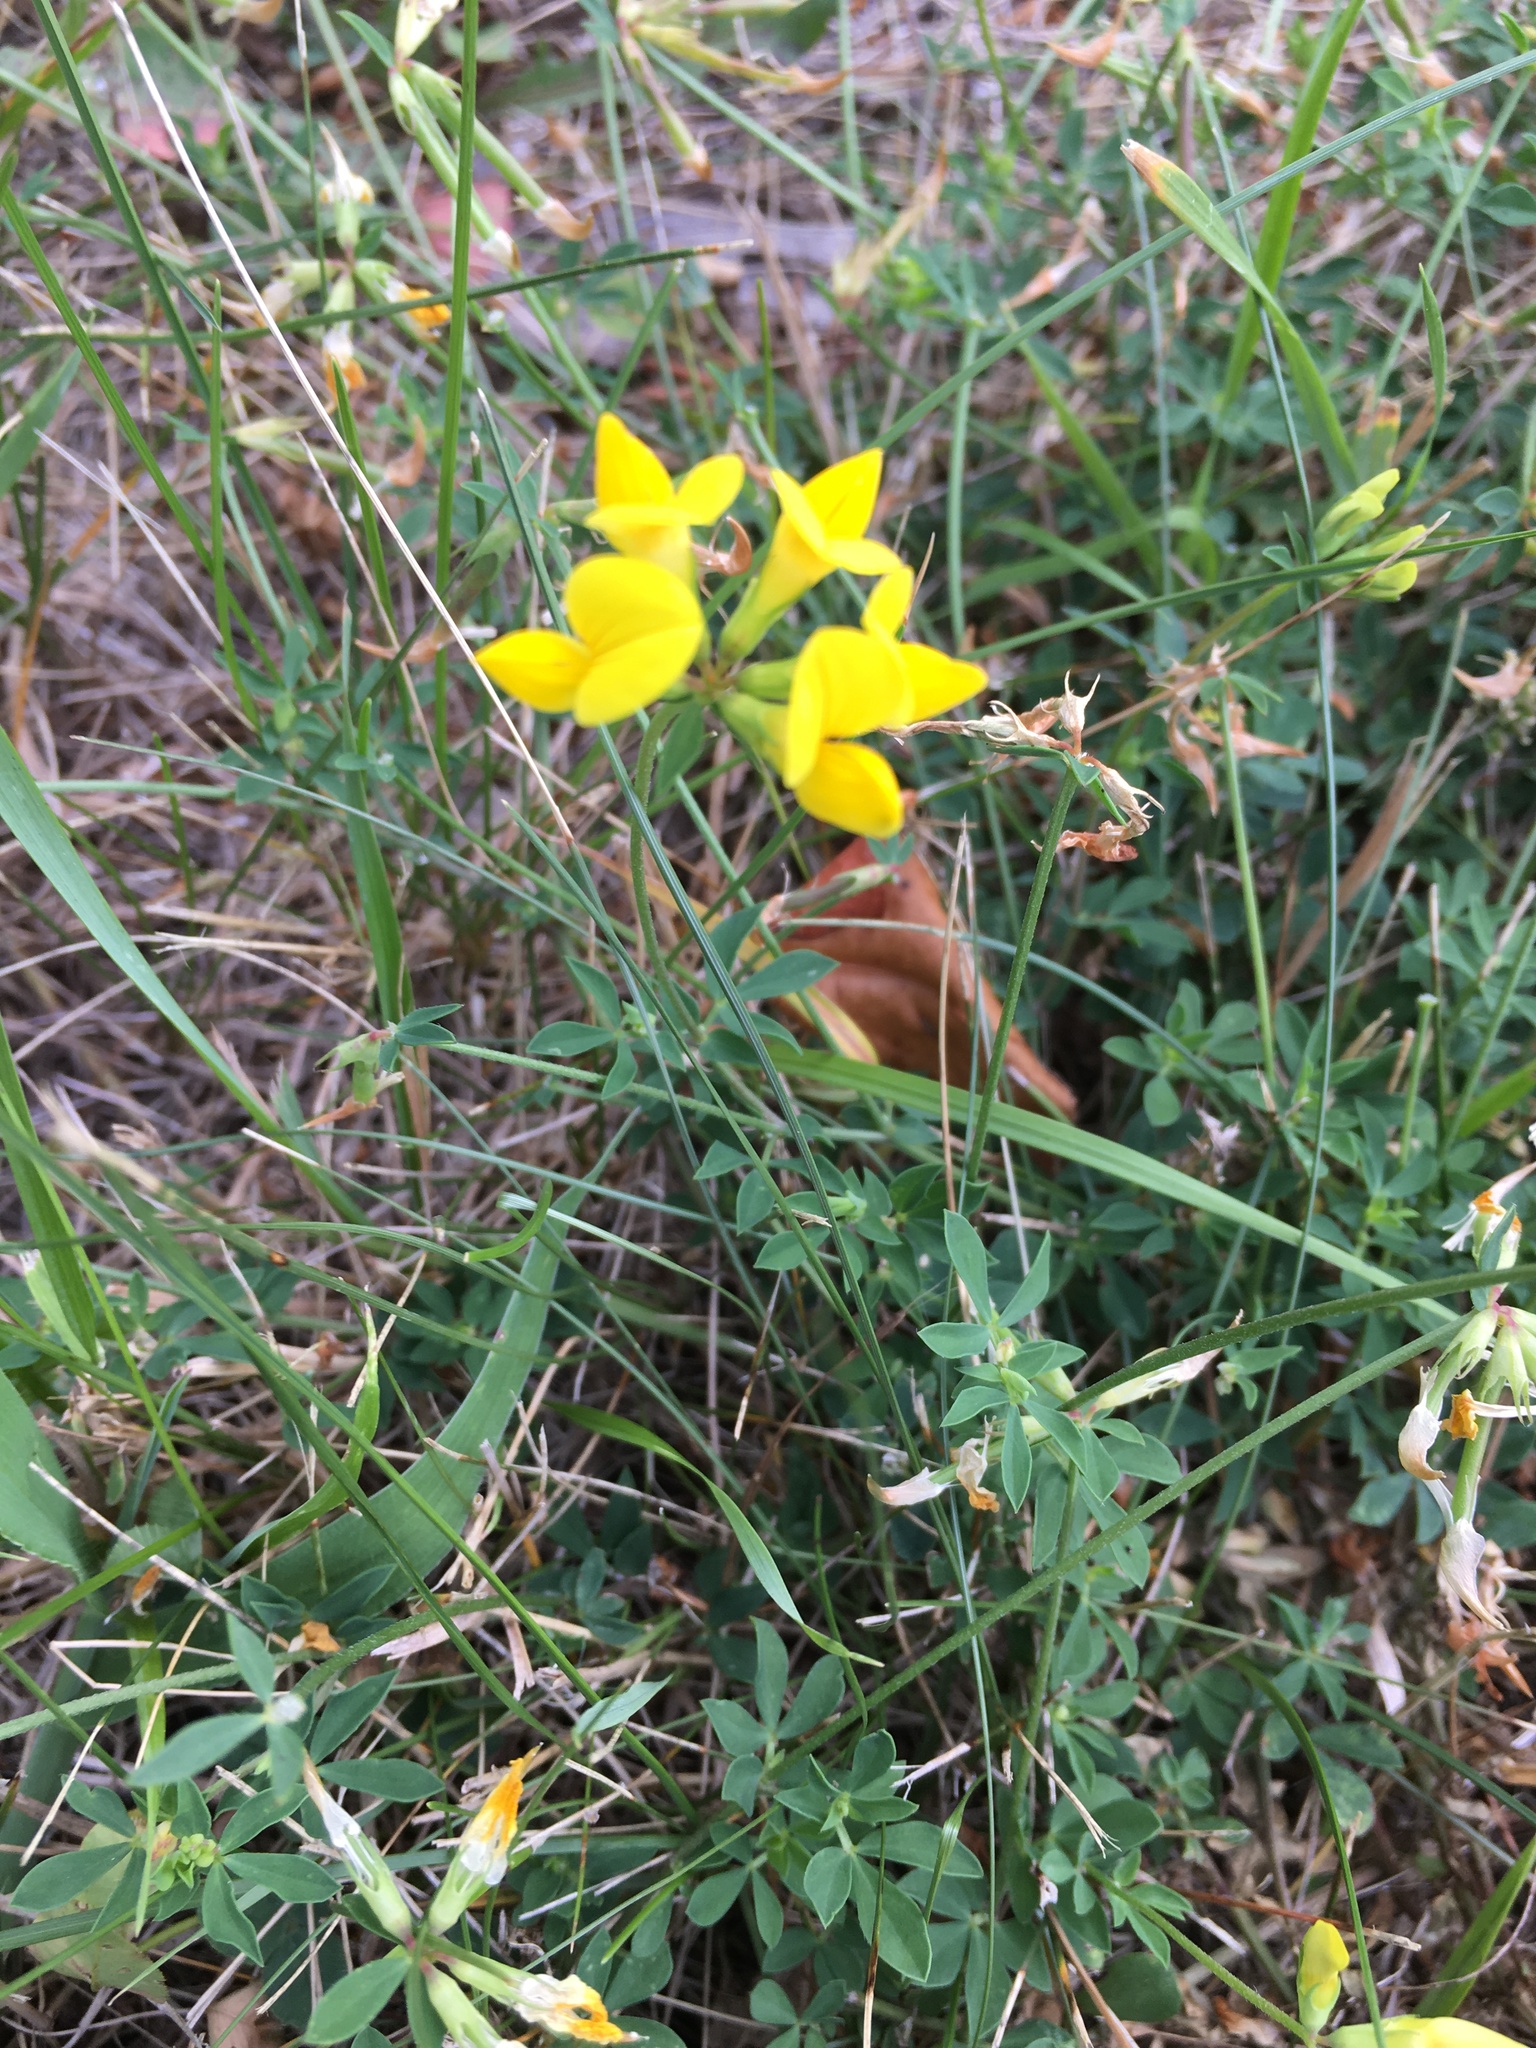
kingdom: Plantae
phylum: Tracheophyta
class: Magnoliopsida
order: Fabales
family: Fabaceae
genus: Lotus
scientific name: Lotus corniculatus
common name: Common bird's-foot-trefoil
